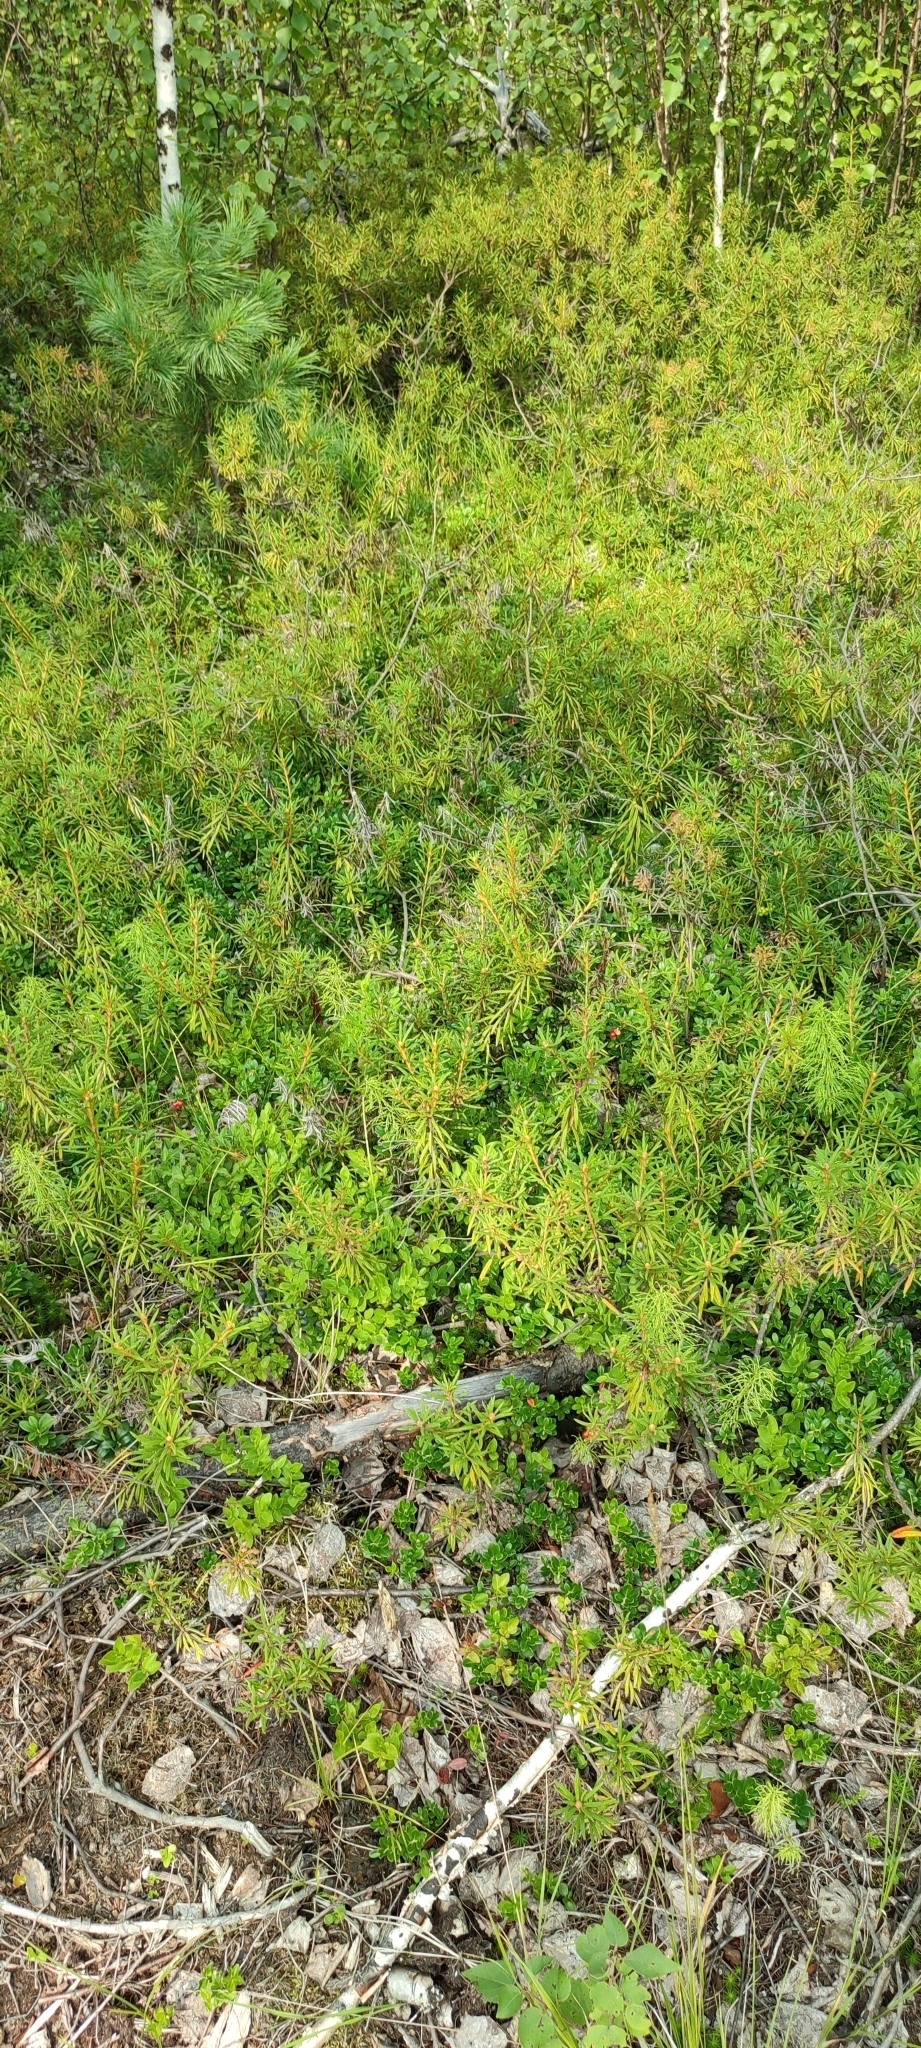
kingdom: Plantae
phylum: Tracheophyta
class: Magnoliopsida
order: Ericales
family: Ericaceae
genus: Rhododendron
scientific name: Rhododendron tomentosum
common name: Marsh labrador tea
